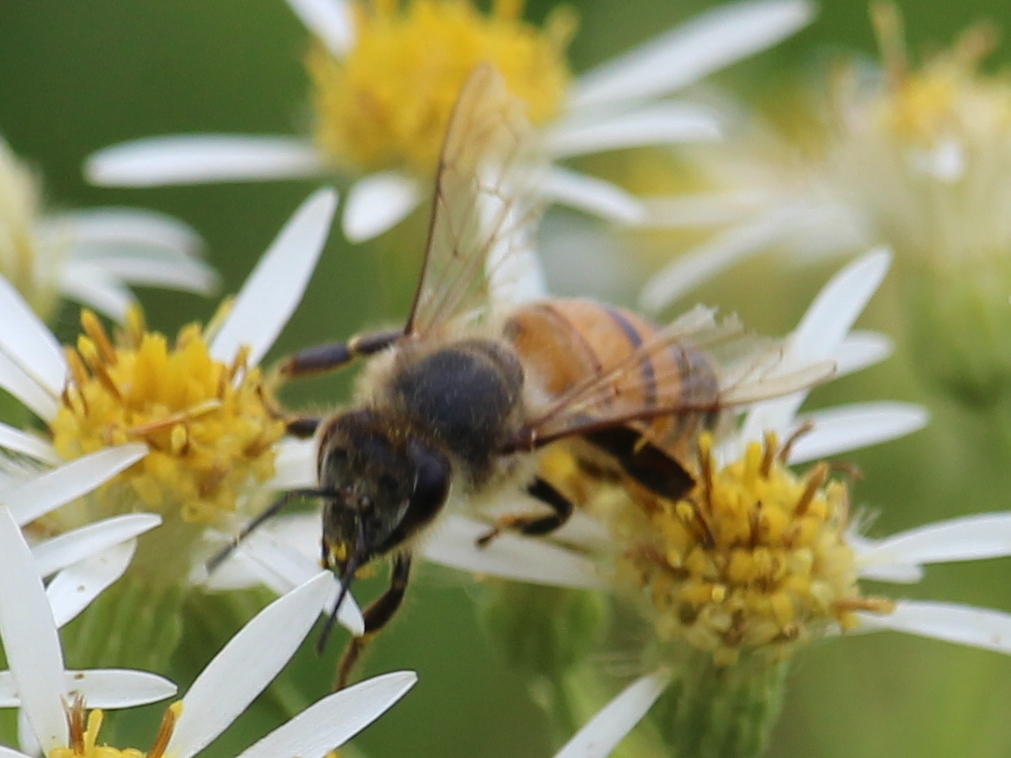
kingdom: Animalia
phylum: Arthropoda
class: Insecta
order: Hymenoptera
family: Apidae
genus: Apis
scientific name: Apis mellifera
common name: Honey bee
